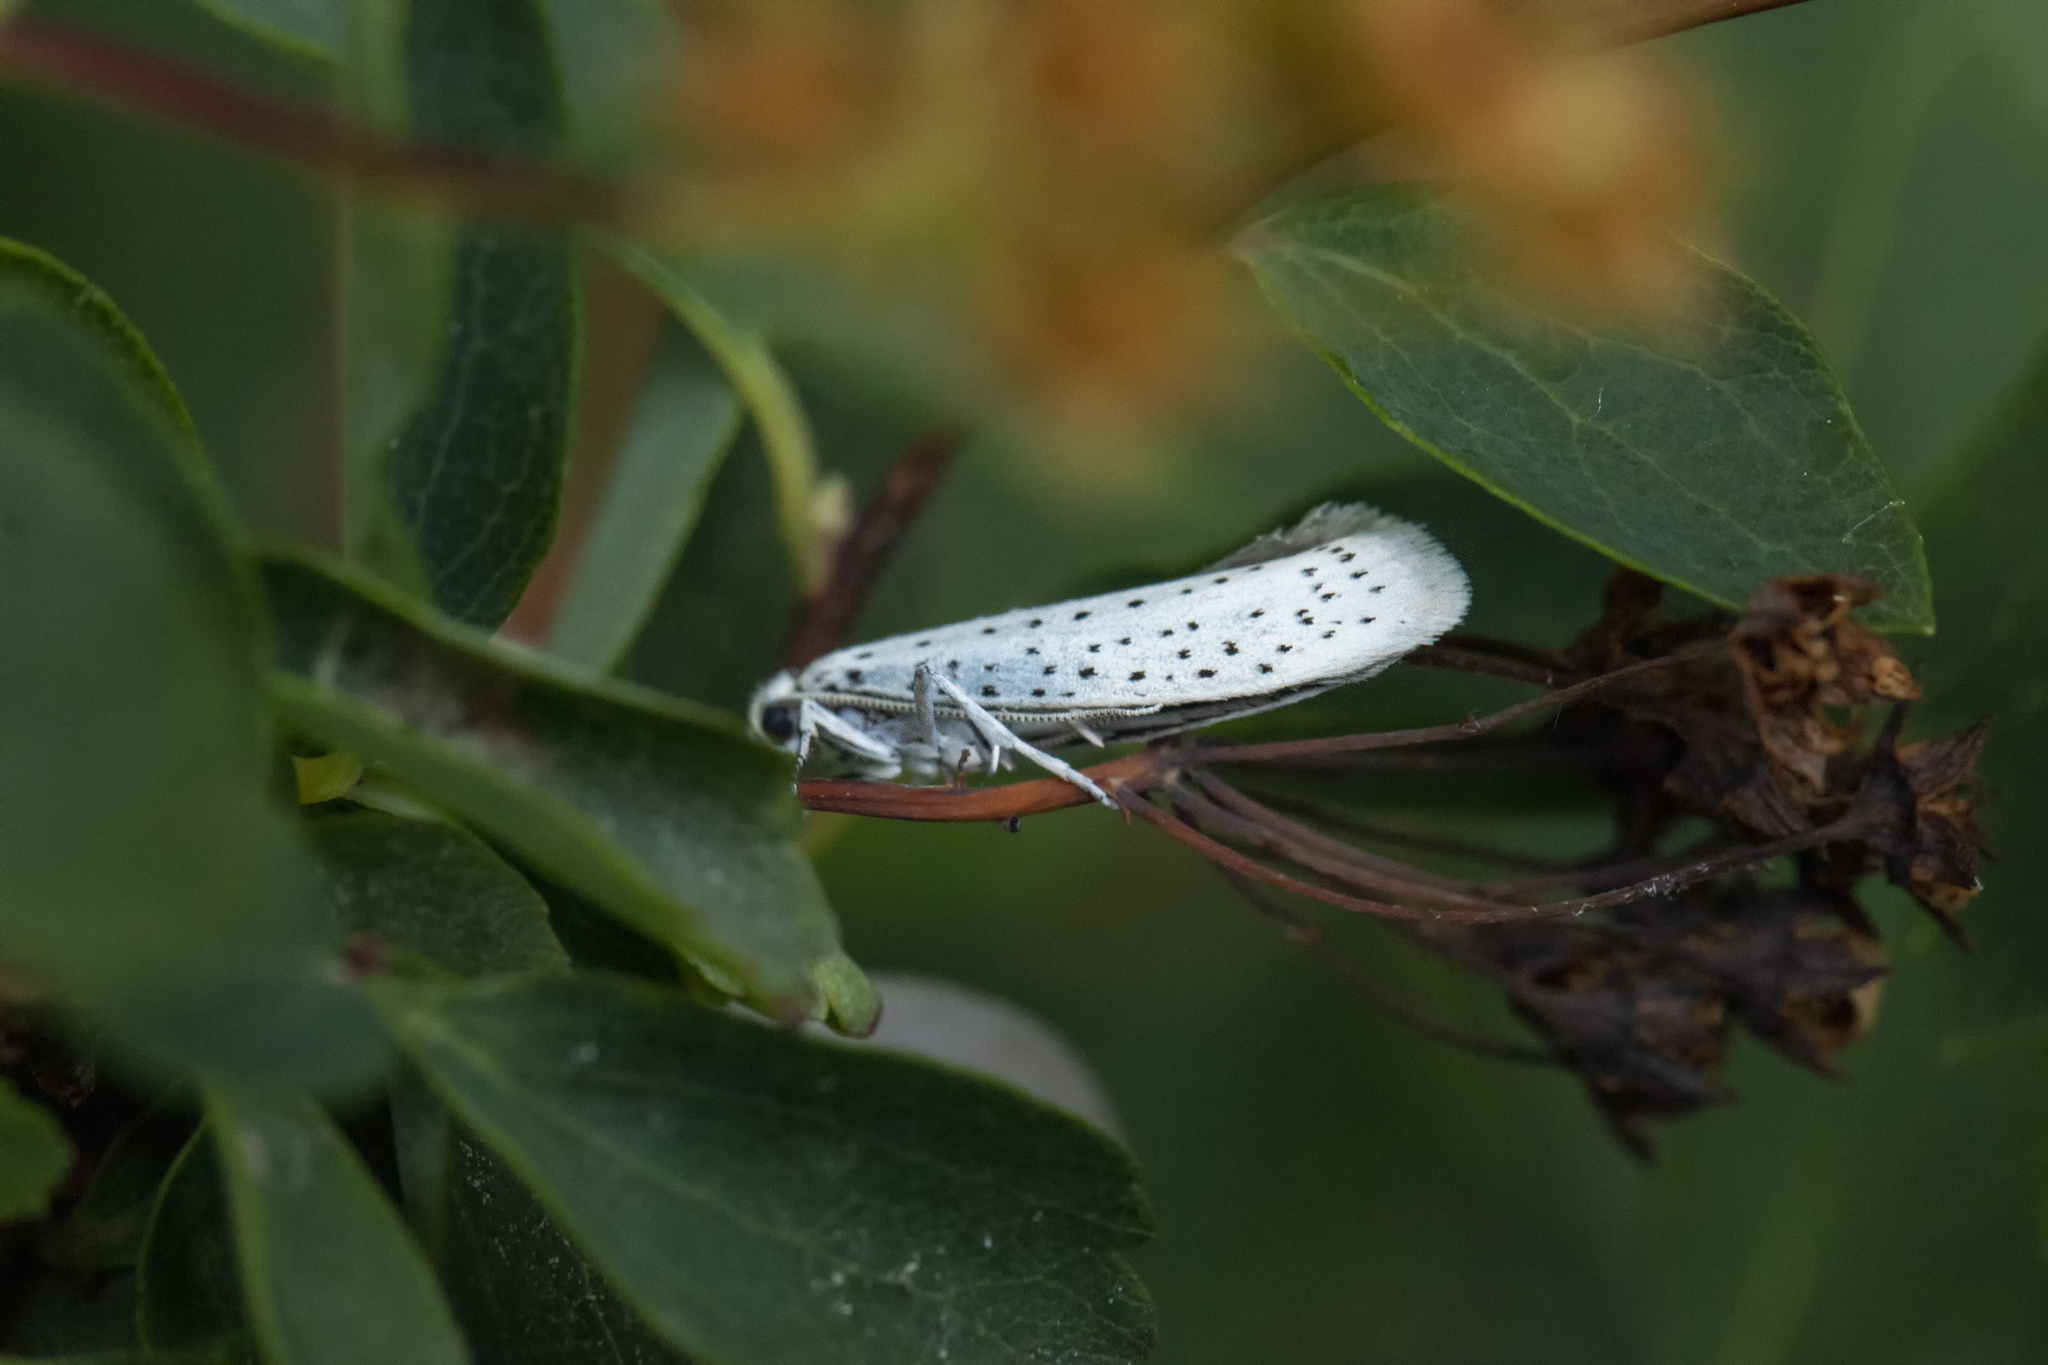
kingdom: Animalia
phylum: Arthropoda
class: Insecta
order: Lepidoptera
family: Yponomeutidae
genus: Yponomeuta
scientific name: Yponomeuta evonymella
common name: Bird-cherry ermine
